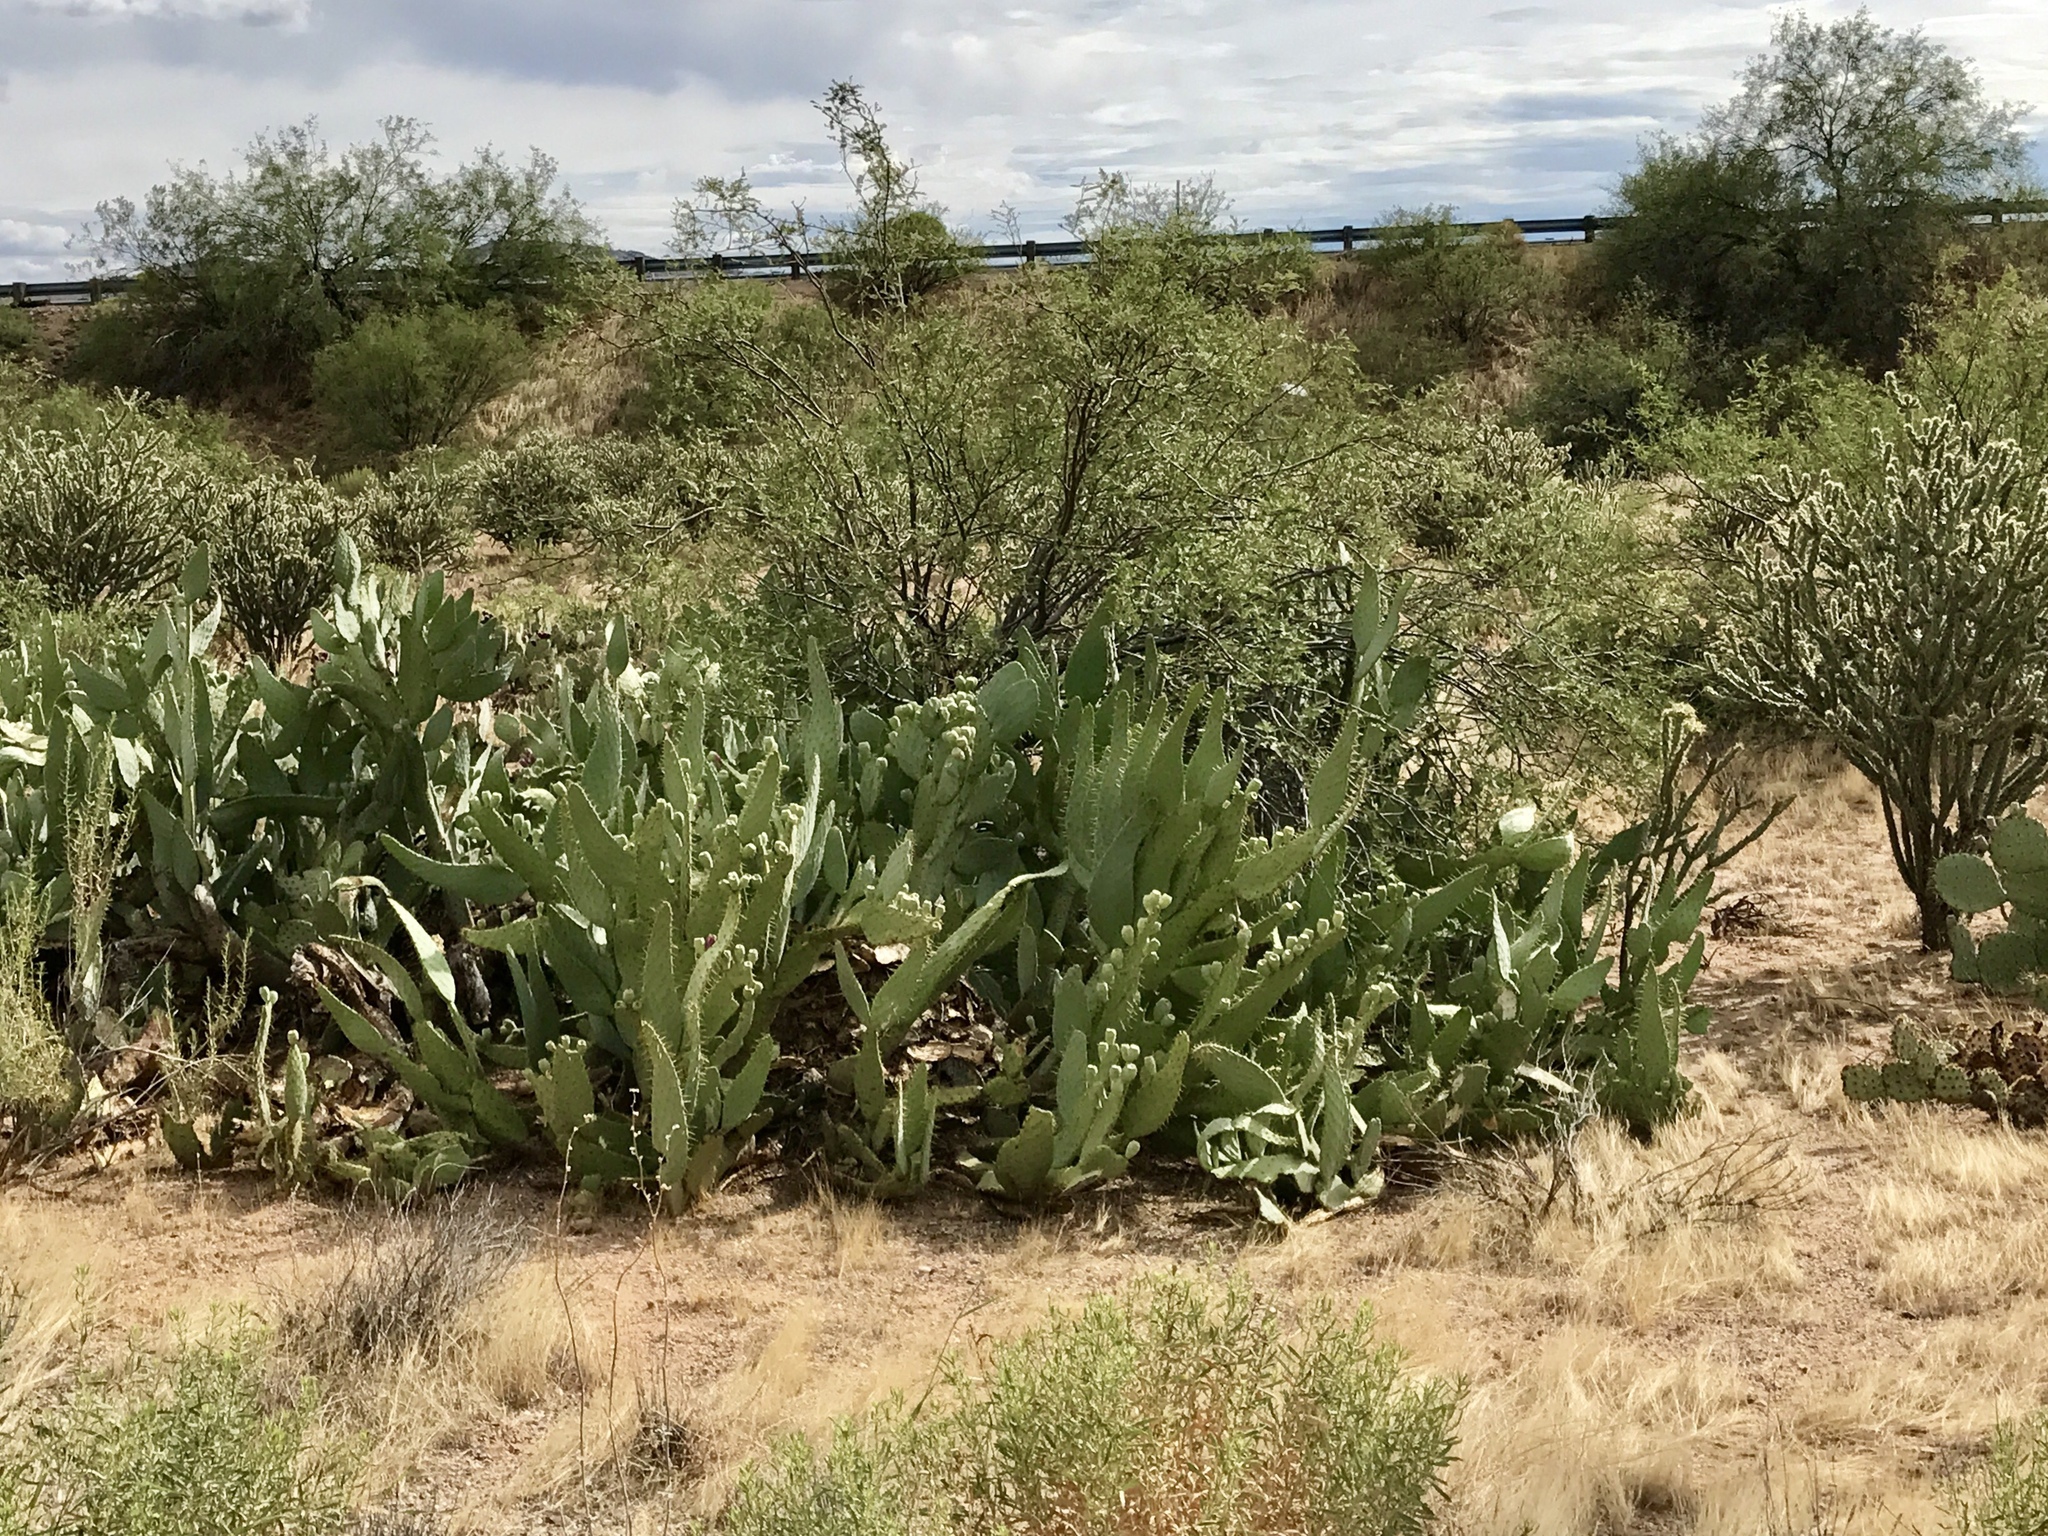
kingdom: Plantae
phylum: Tracheophyta
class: Magnoliopsida
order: Caryophyllales
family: Cactaceae
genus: Opuntia
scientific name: Opuntia engelmannii
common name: Cactus-apple
